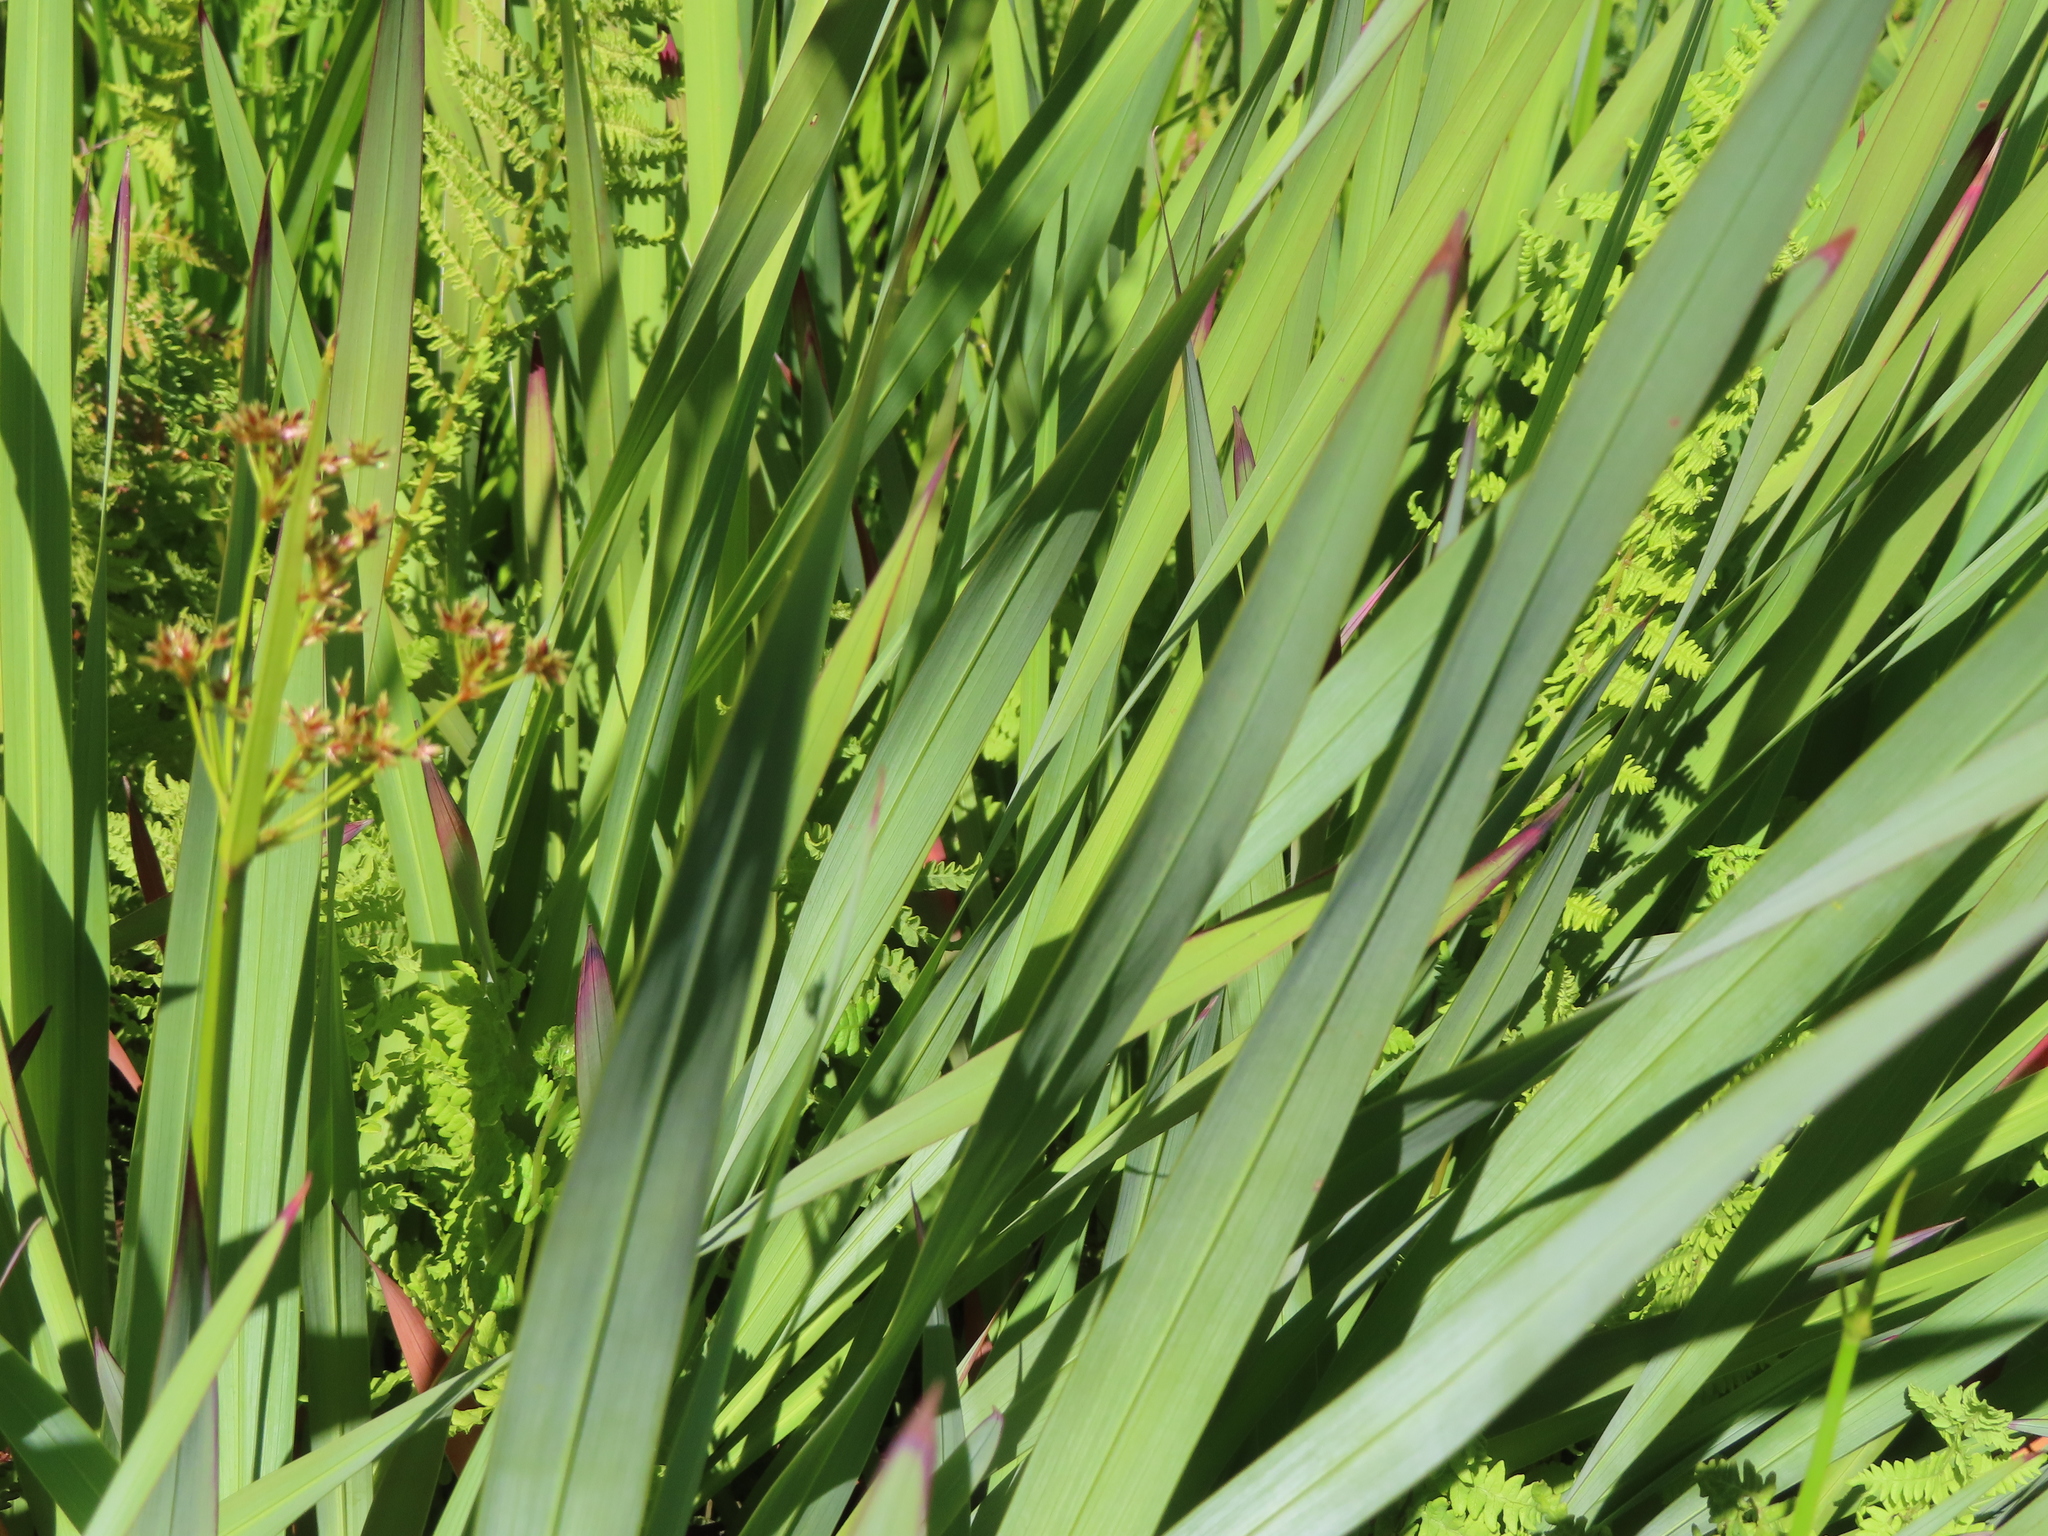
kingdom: Plantae
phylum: Tracheophyta
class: Liliopsida
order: Asparagales
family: Iridaceae
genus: Watsonia
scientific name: Watsonia angusta
